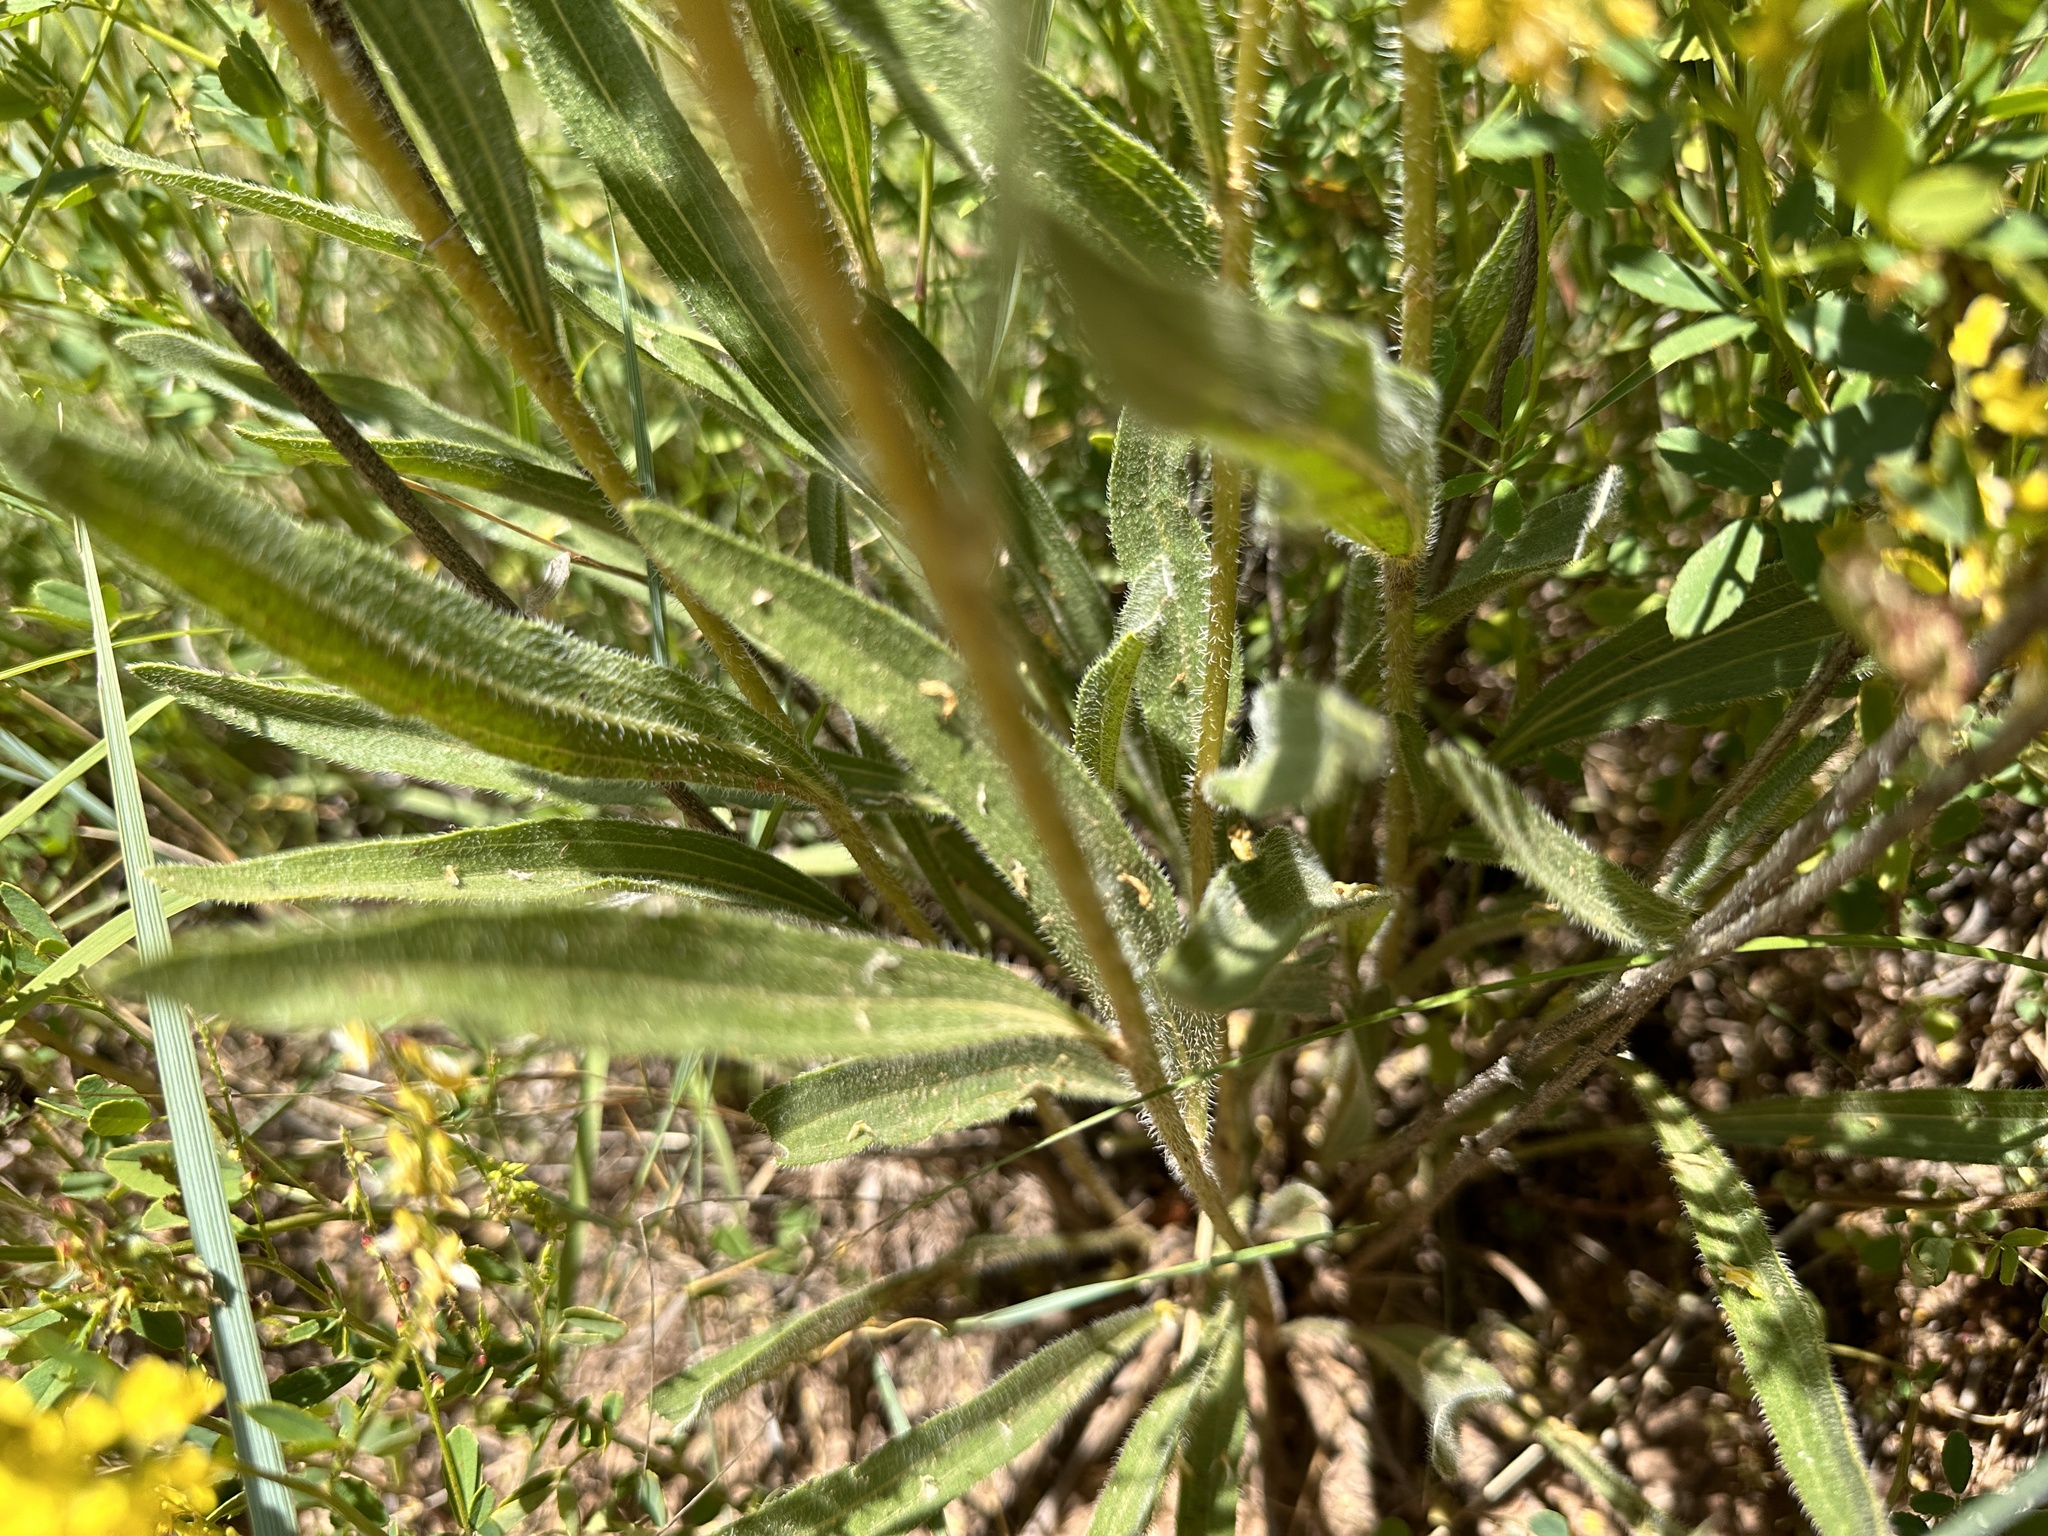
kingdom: Plantae
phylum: Tracheophyta
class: Magnoliopsida
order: Asterales
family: Asteraceae
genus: Echinacea
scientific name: Echinacea angustifolia
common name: Black-sampson echinacea
